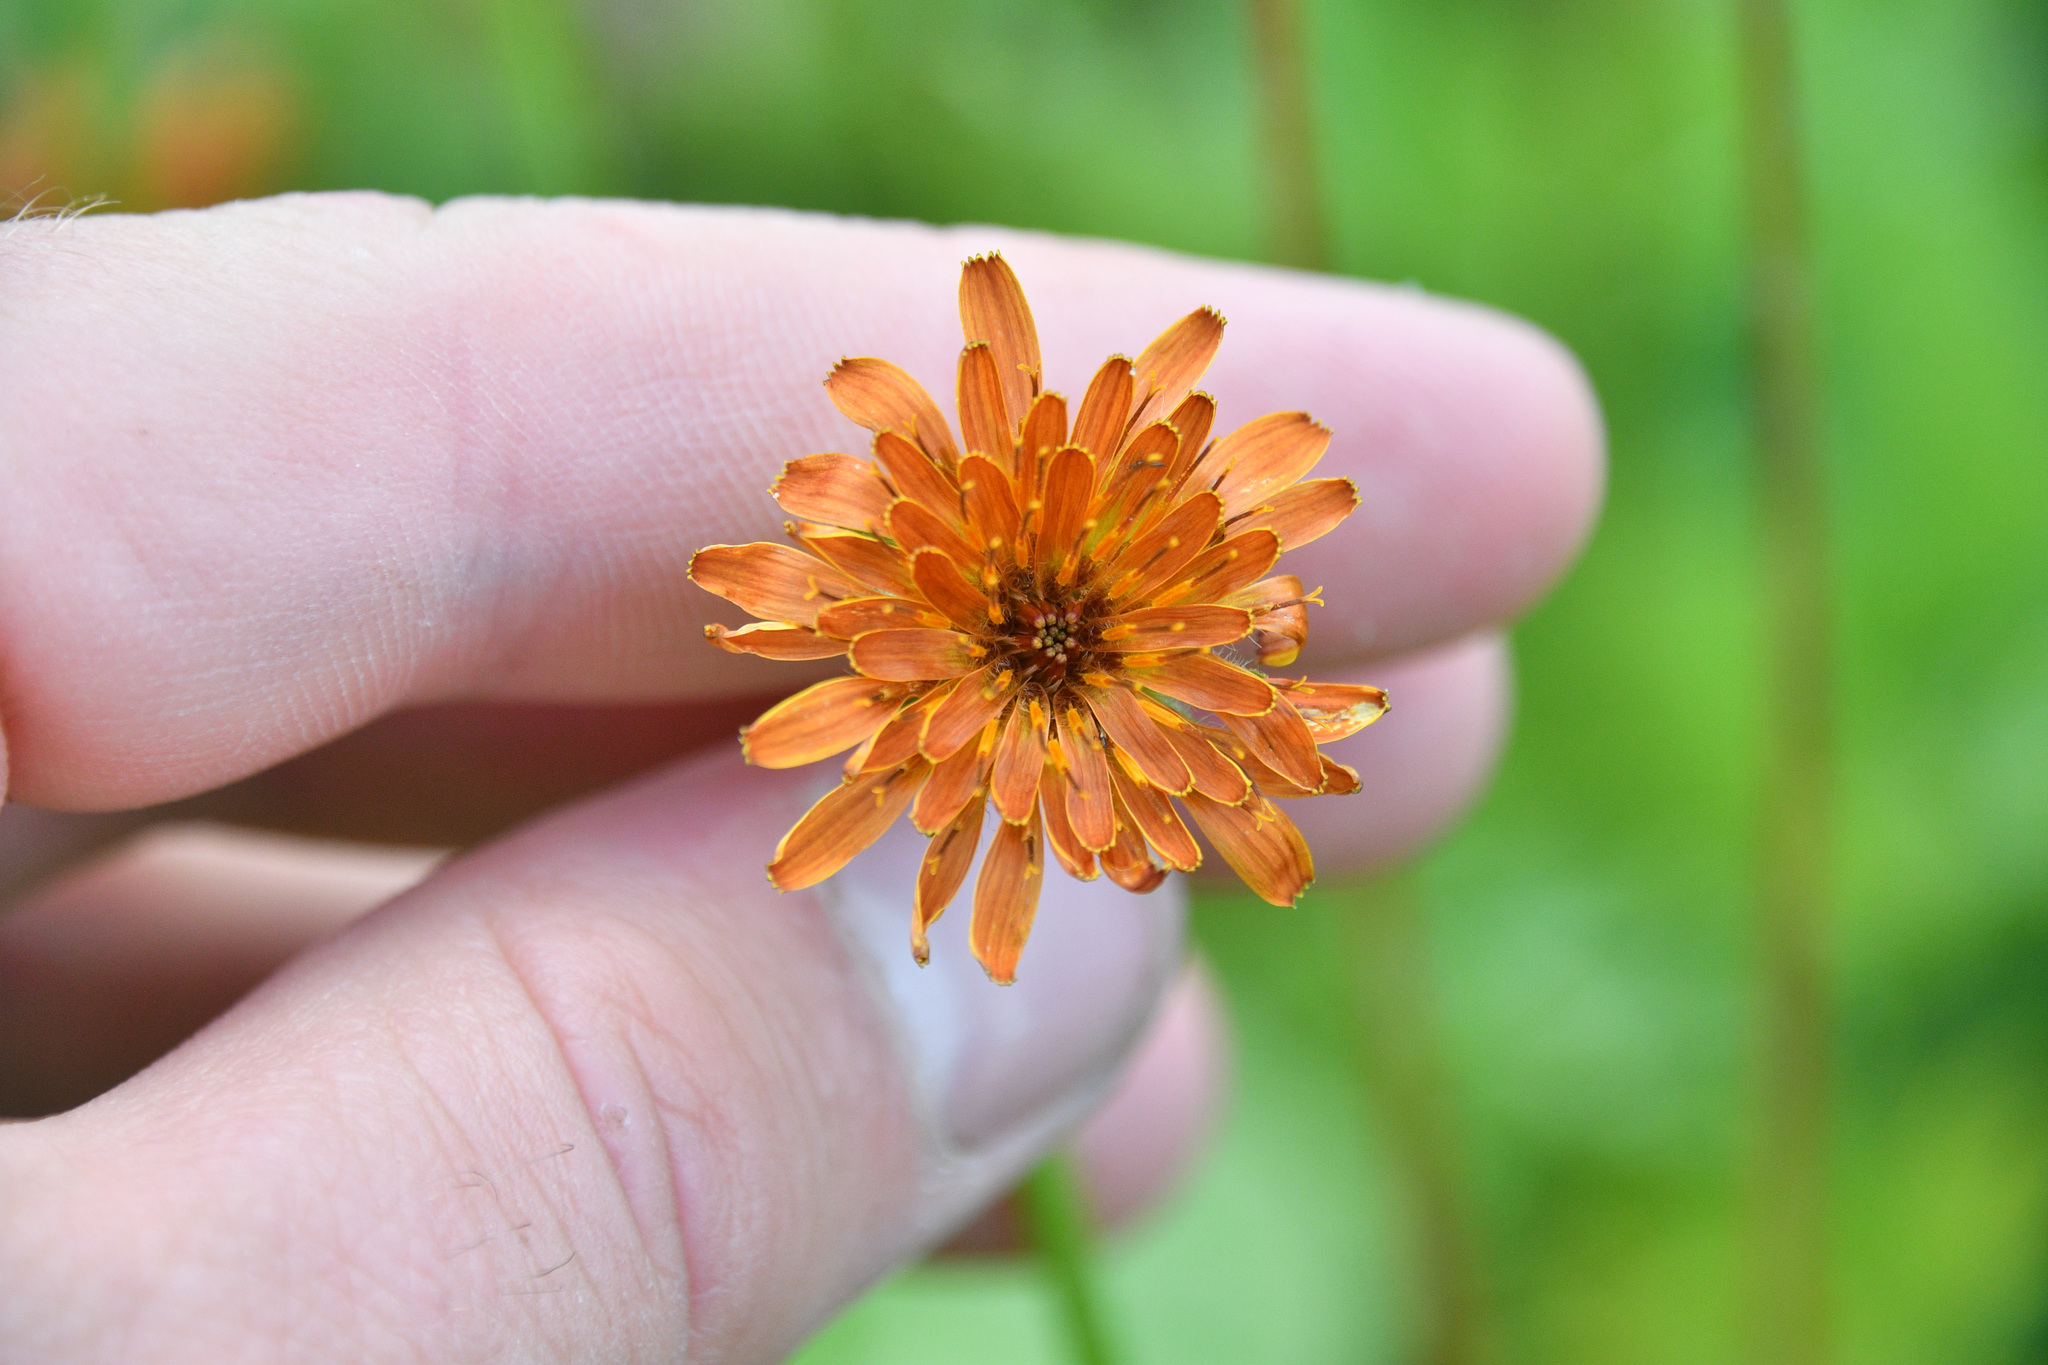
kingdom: Plantae
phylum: Tracheophyta
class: Magnoliopsida
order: Asterales
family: Asteraceae
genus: Agoseris
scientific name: Agoseris aurantiaca
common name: Mountain agoseris
